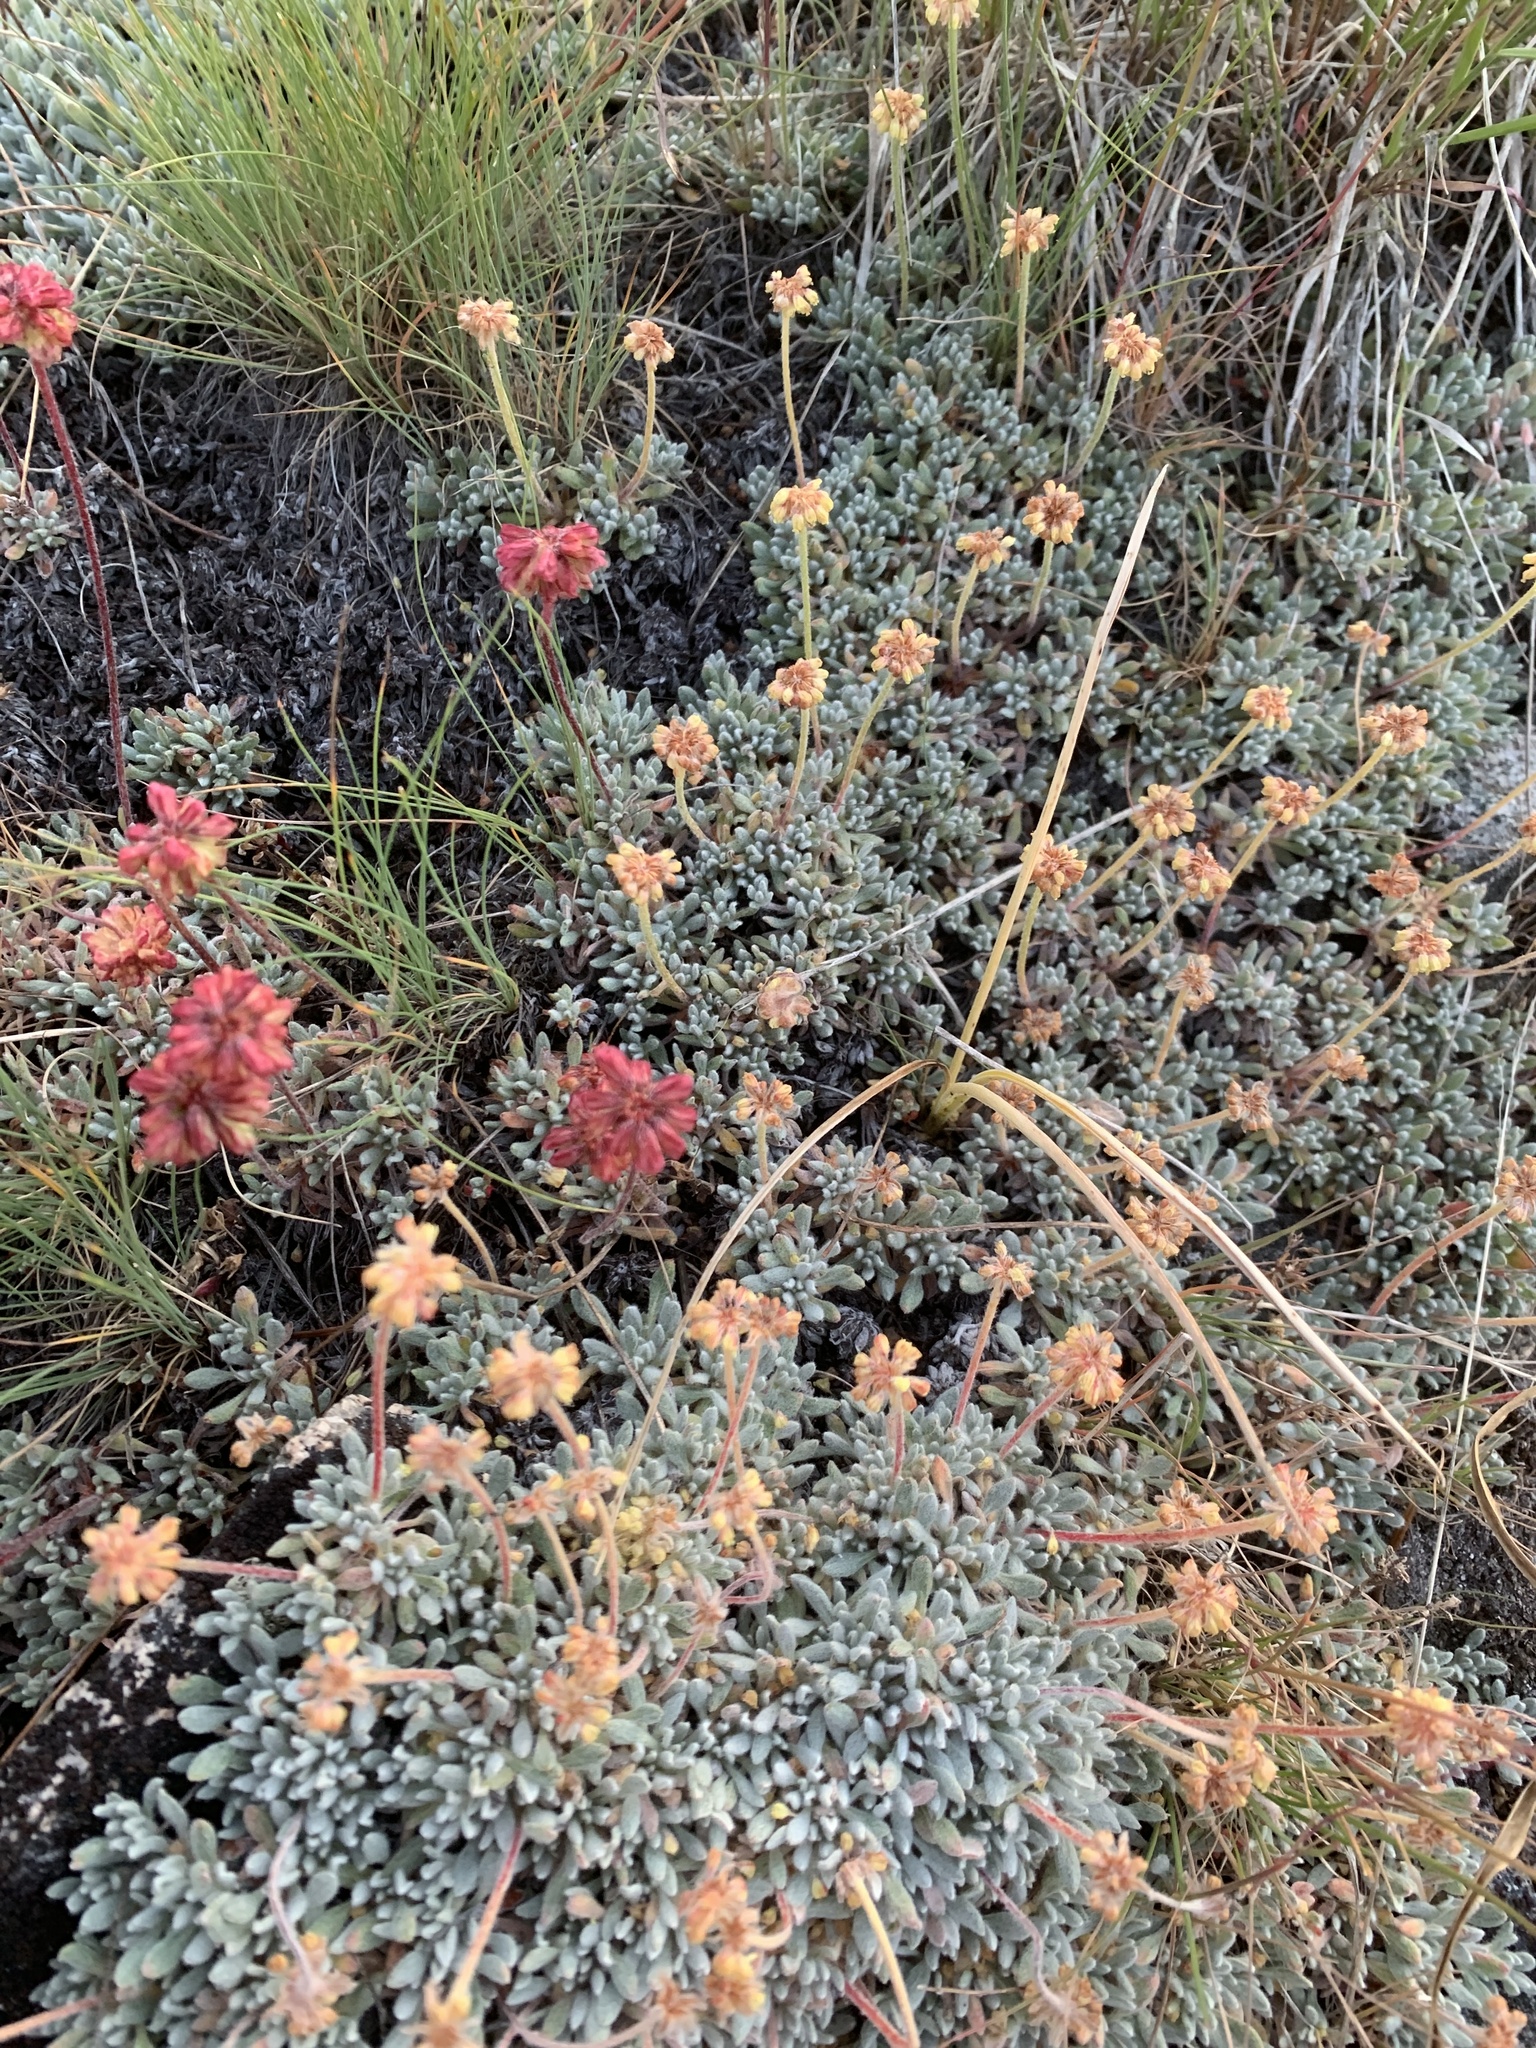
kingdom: Plantae
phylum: Tracheophyta
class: Magnoliopsida
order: Caryophyllales
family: Polygonaceae
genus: Eriogonum
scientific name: Eriogonum caespitosum
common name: Matted wild buckwheat
